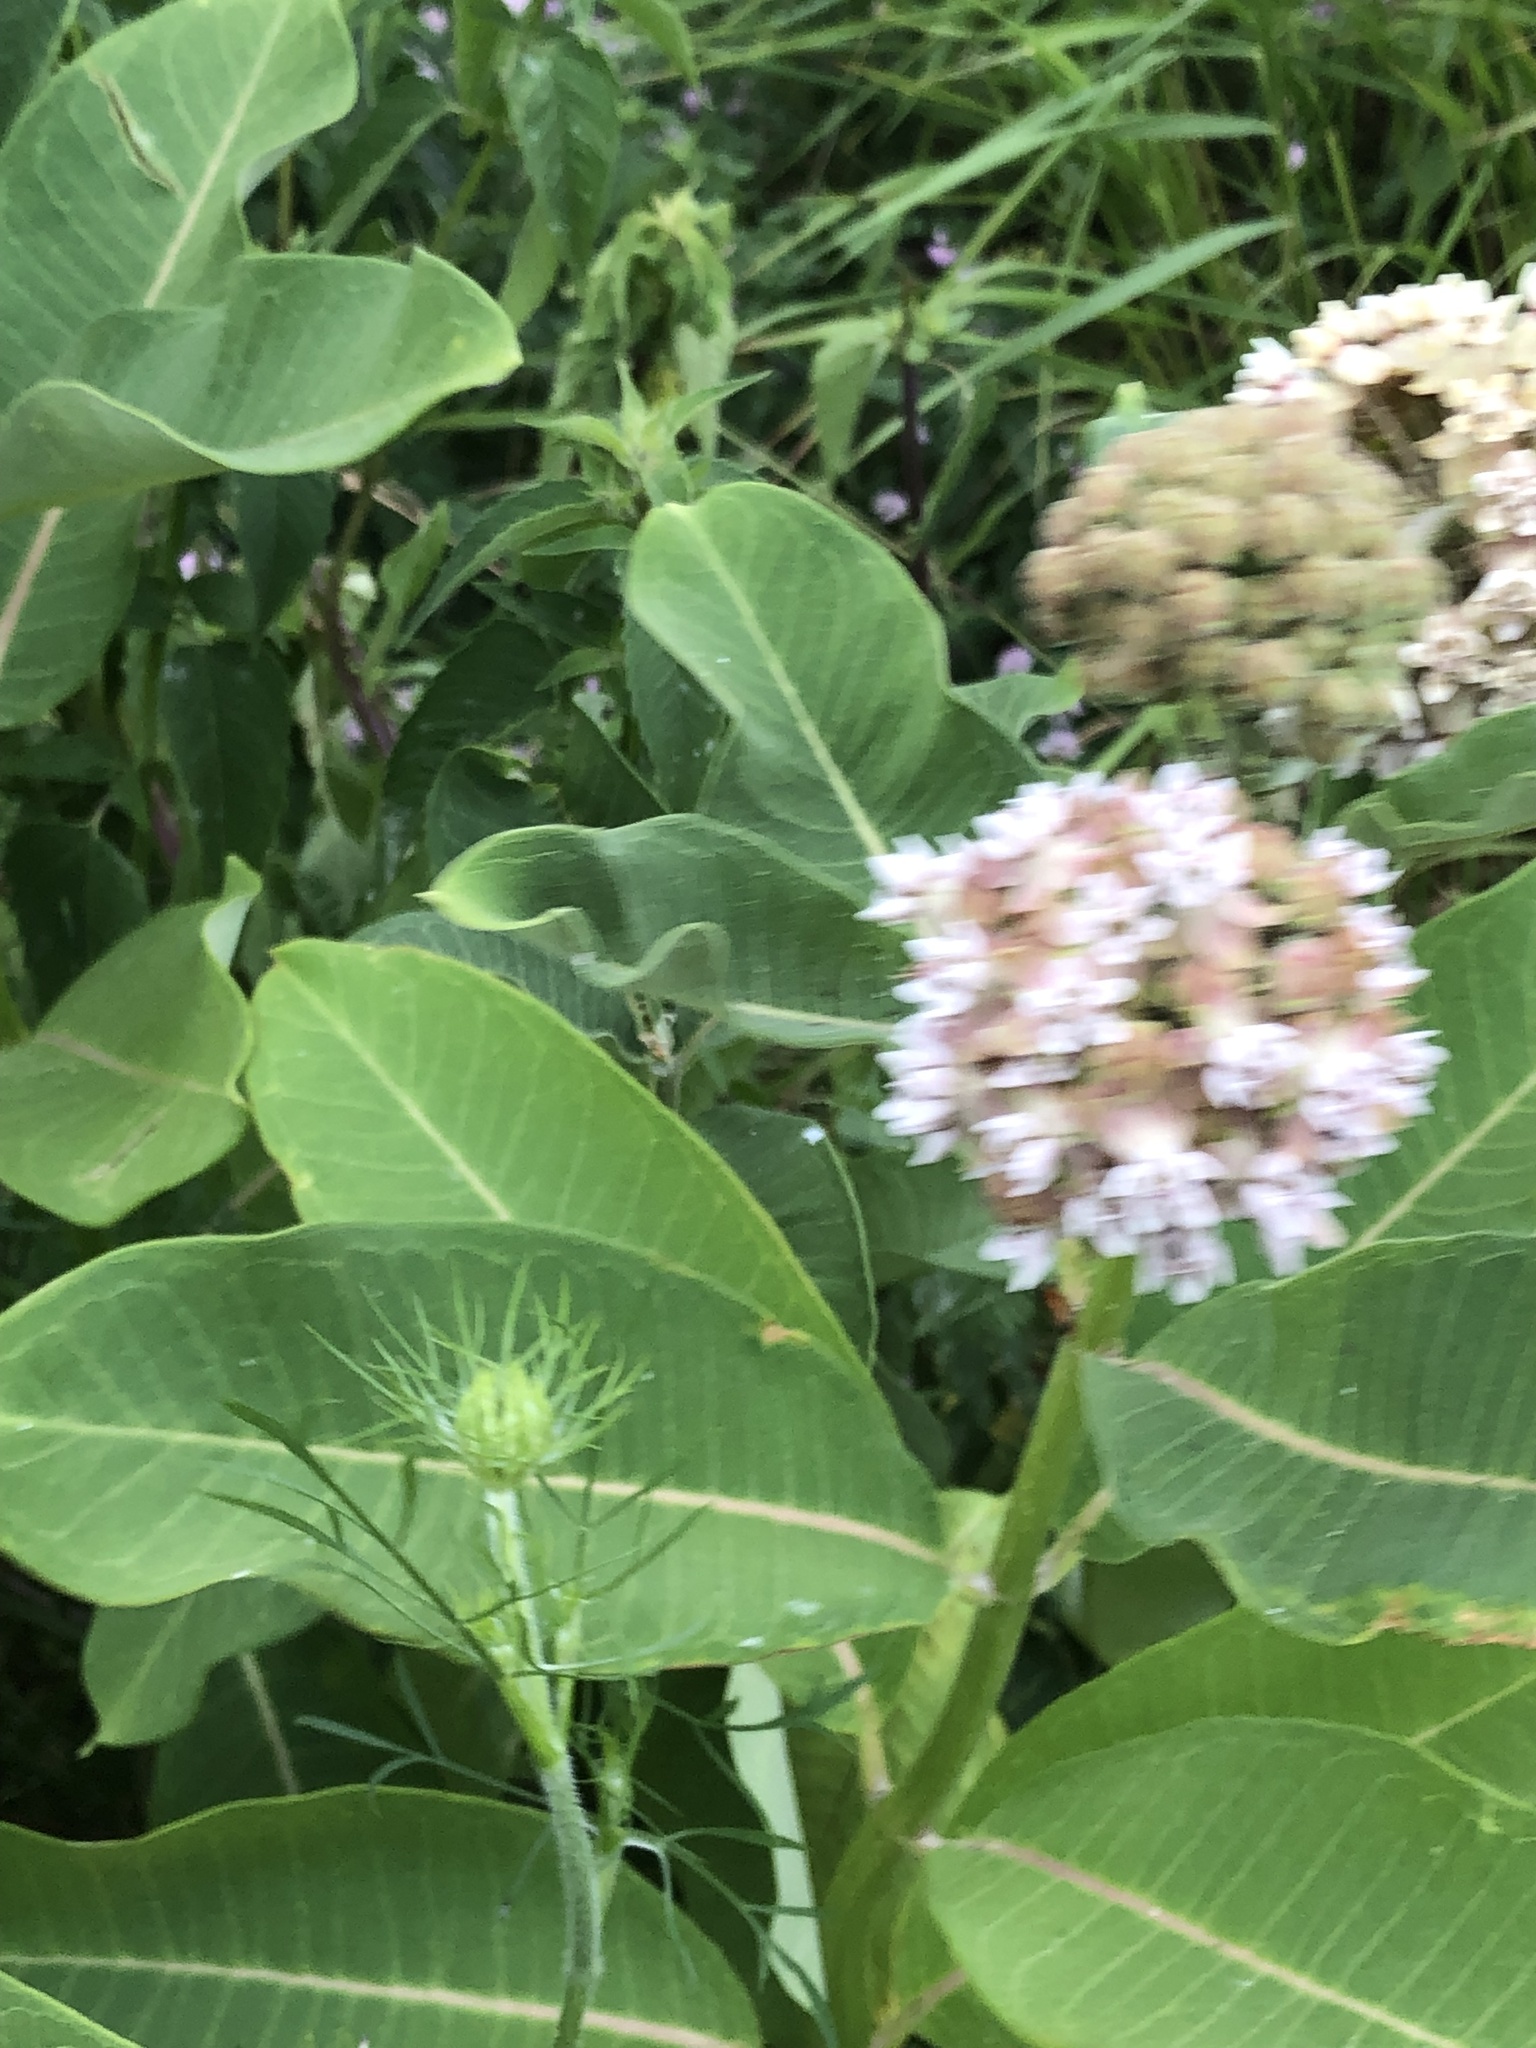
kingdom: Plantae
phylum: Tracheophyta
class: Magnoliopsida
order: Gentianales
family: Apocynaceae
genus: Asclepias
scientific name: Asclepias syriaca
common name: Common milkweed
